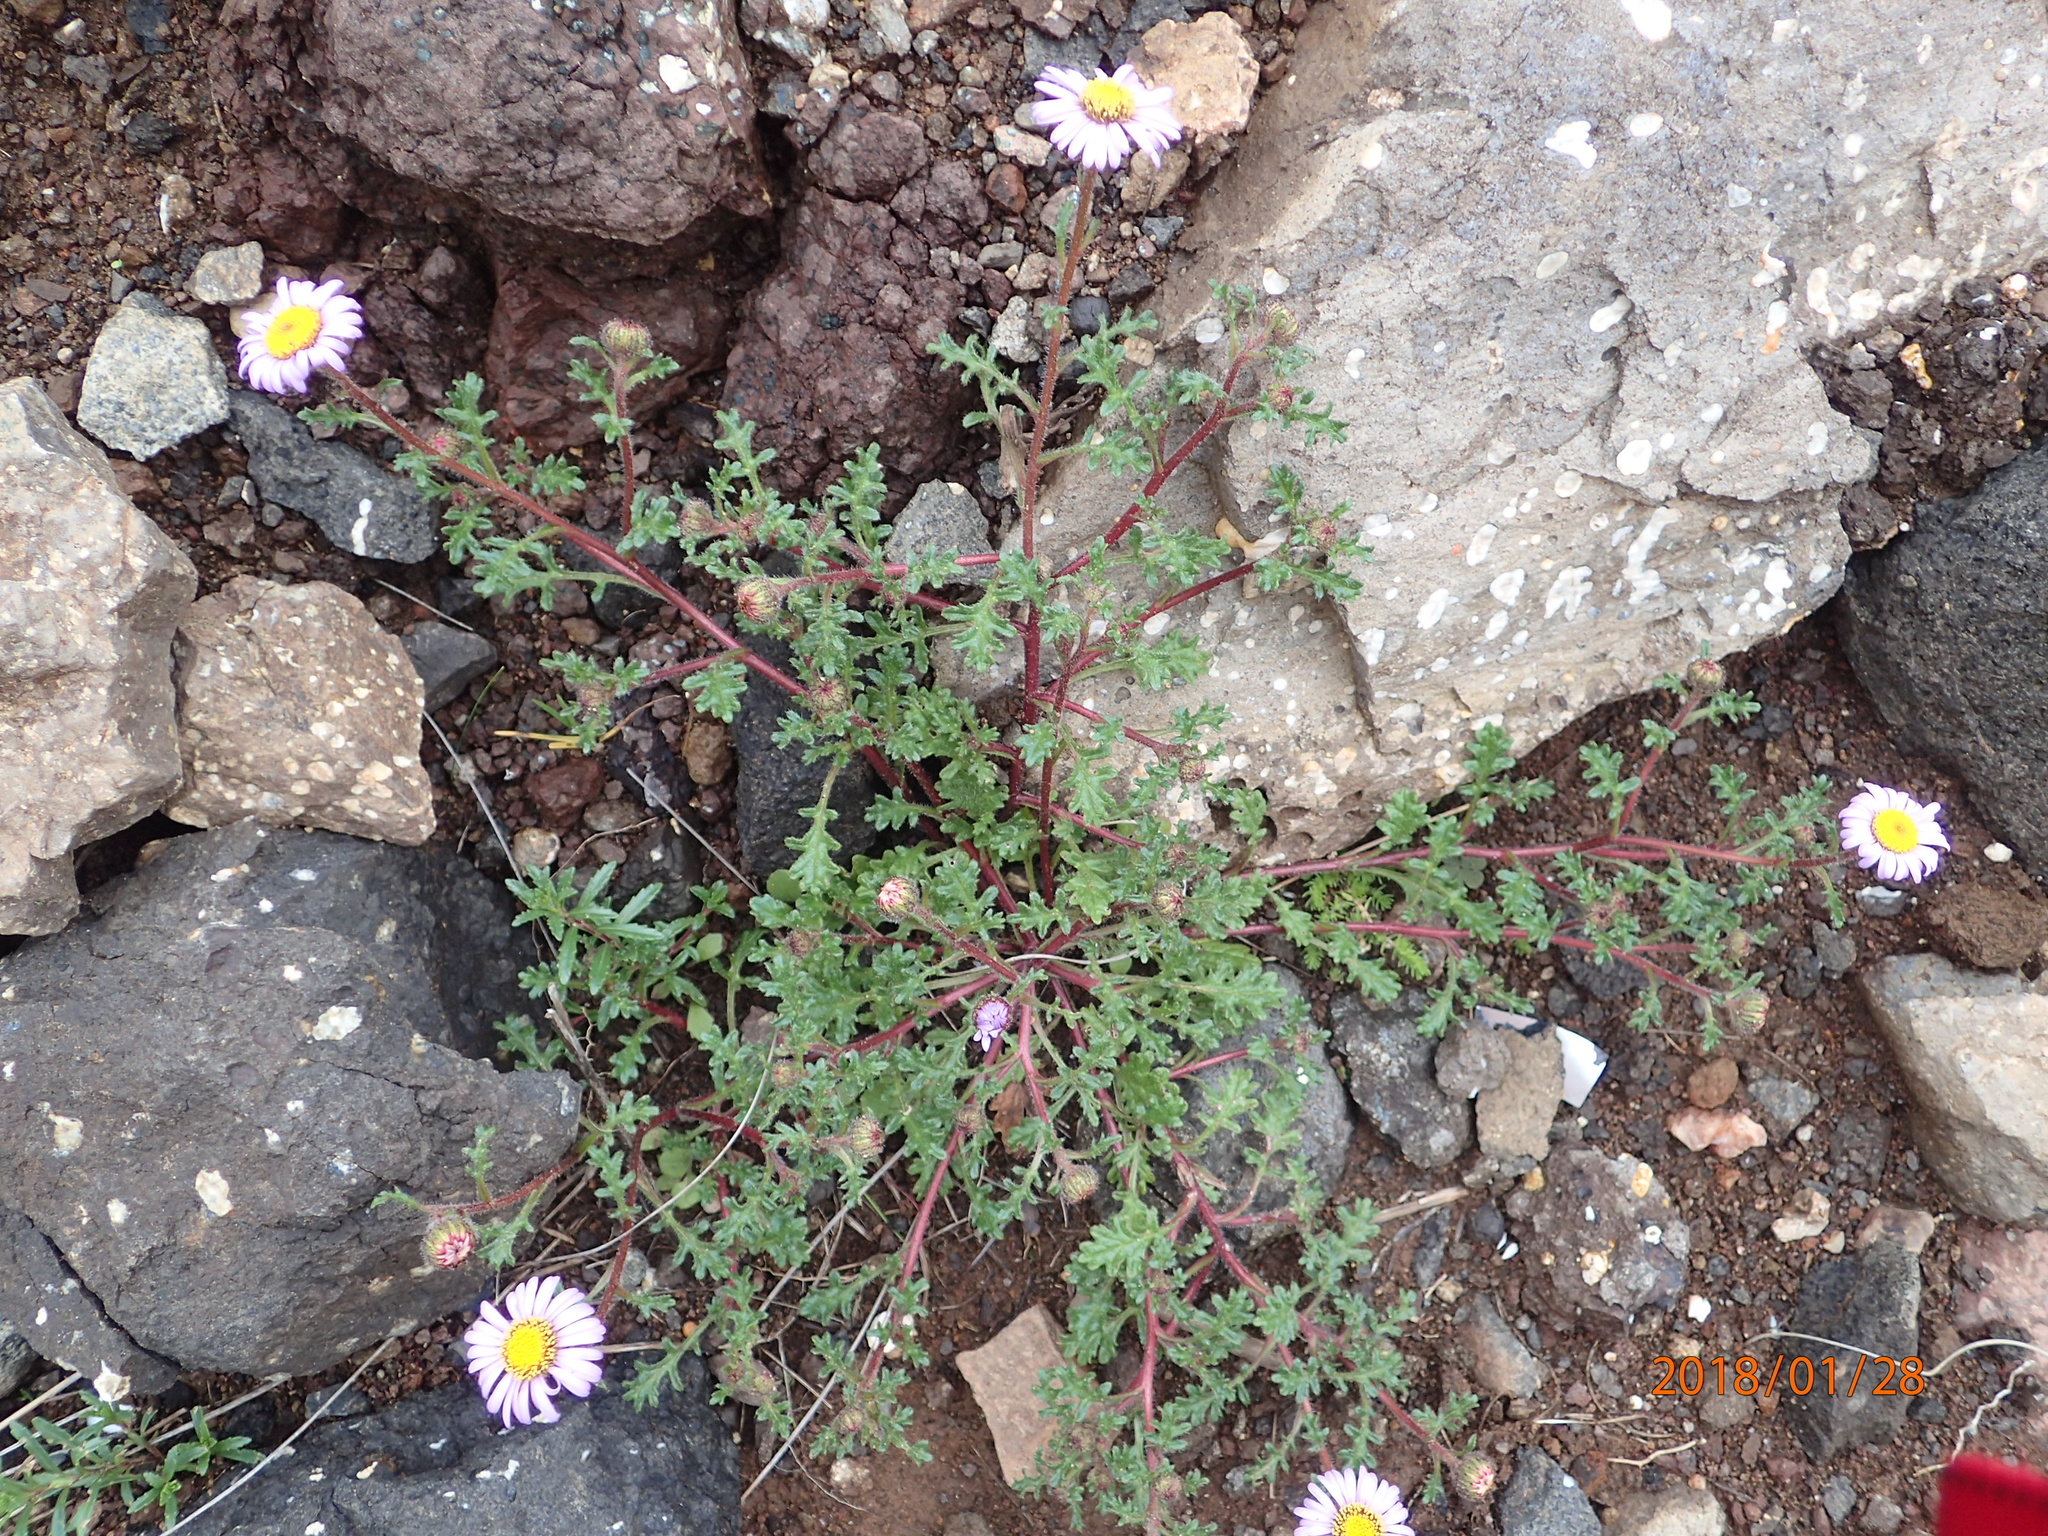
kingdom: Plantae
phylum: Tracheophyta
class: Magnoliopsida
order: Asterales
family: Asteraceae
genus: Afroaster
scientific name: Afroaster erucifolius
